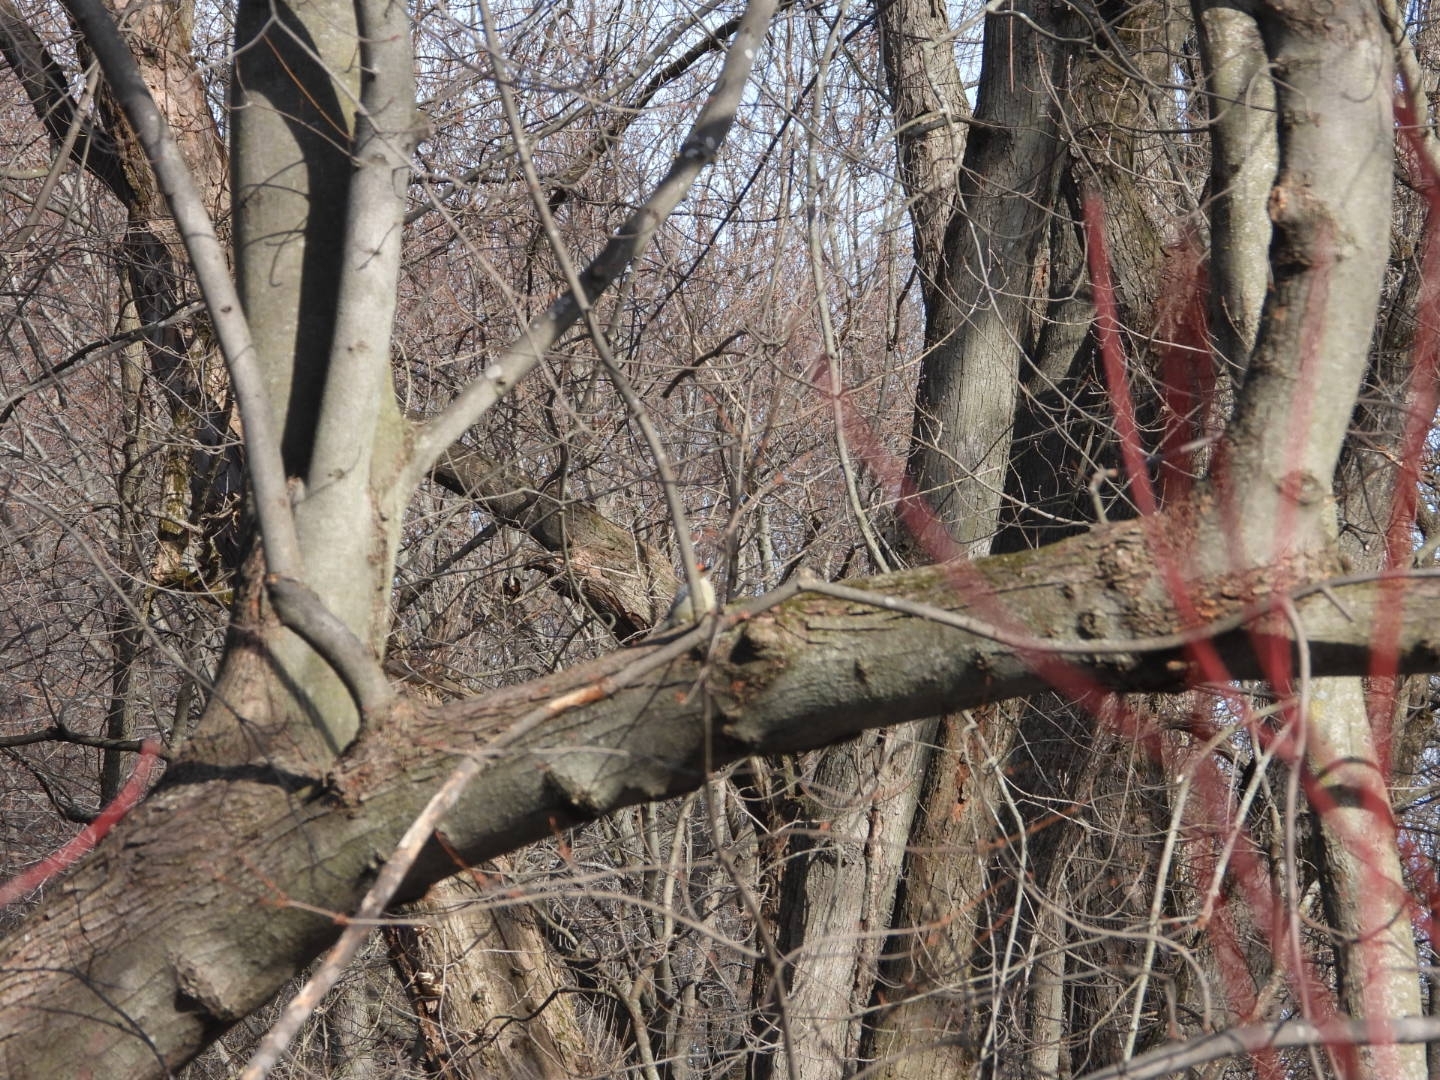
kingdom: Animalia
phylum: Chordata
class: Aves
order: Piciformes
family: Picidae
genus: Melanerpes
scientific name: Melanerpes carolinus
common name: Red-bellied woodpecker
